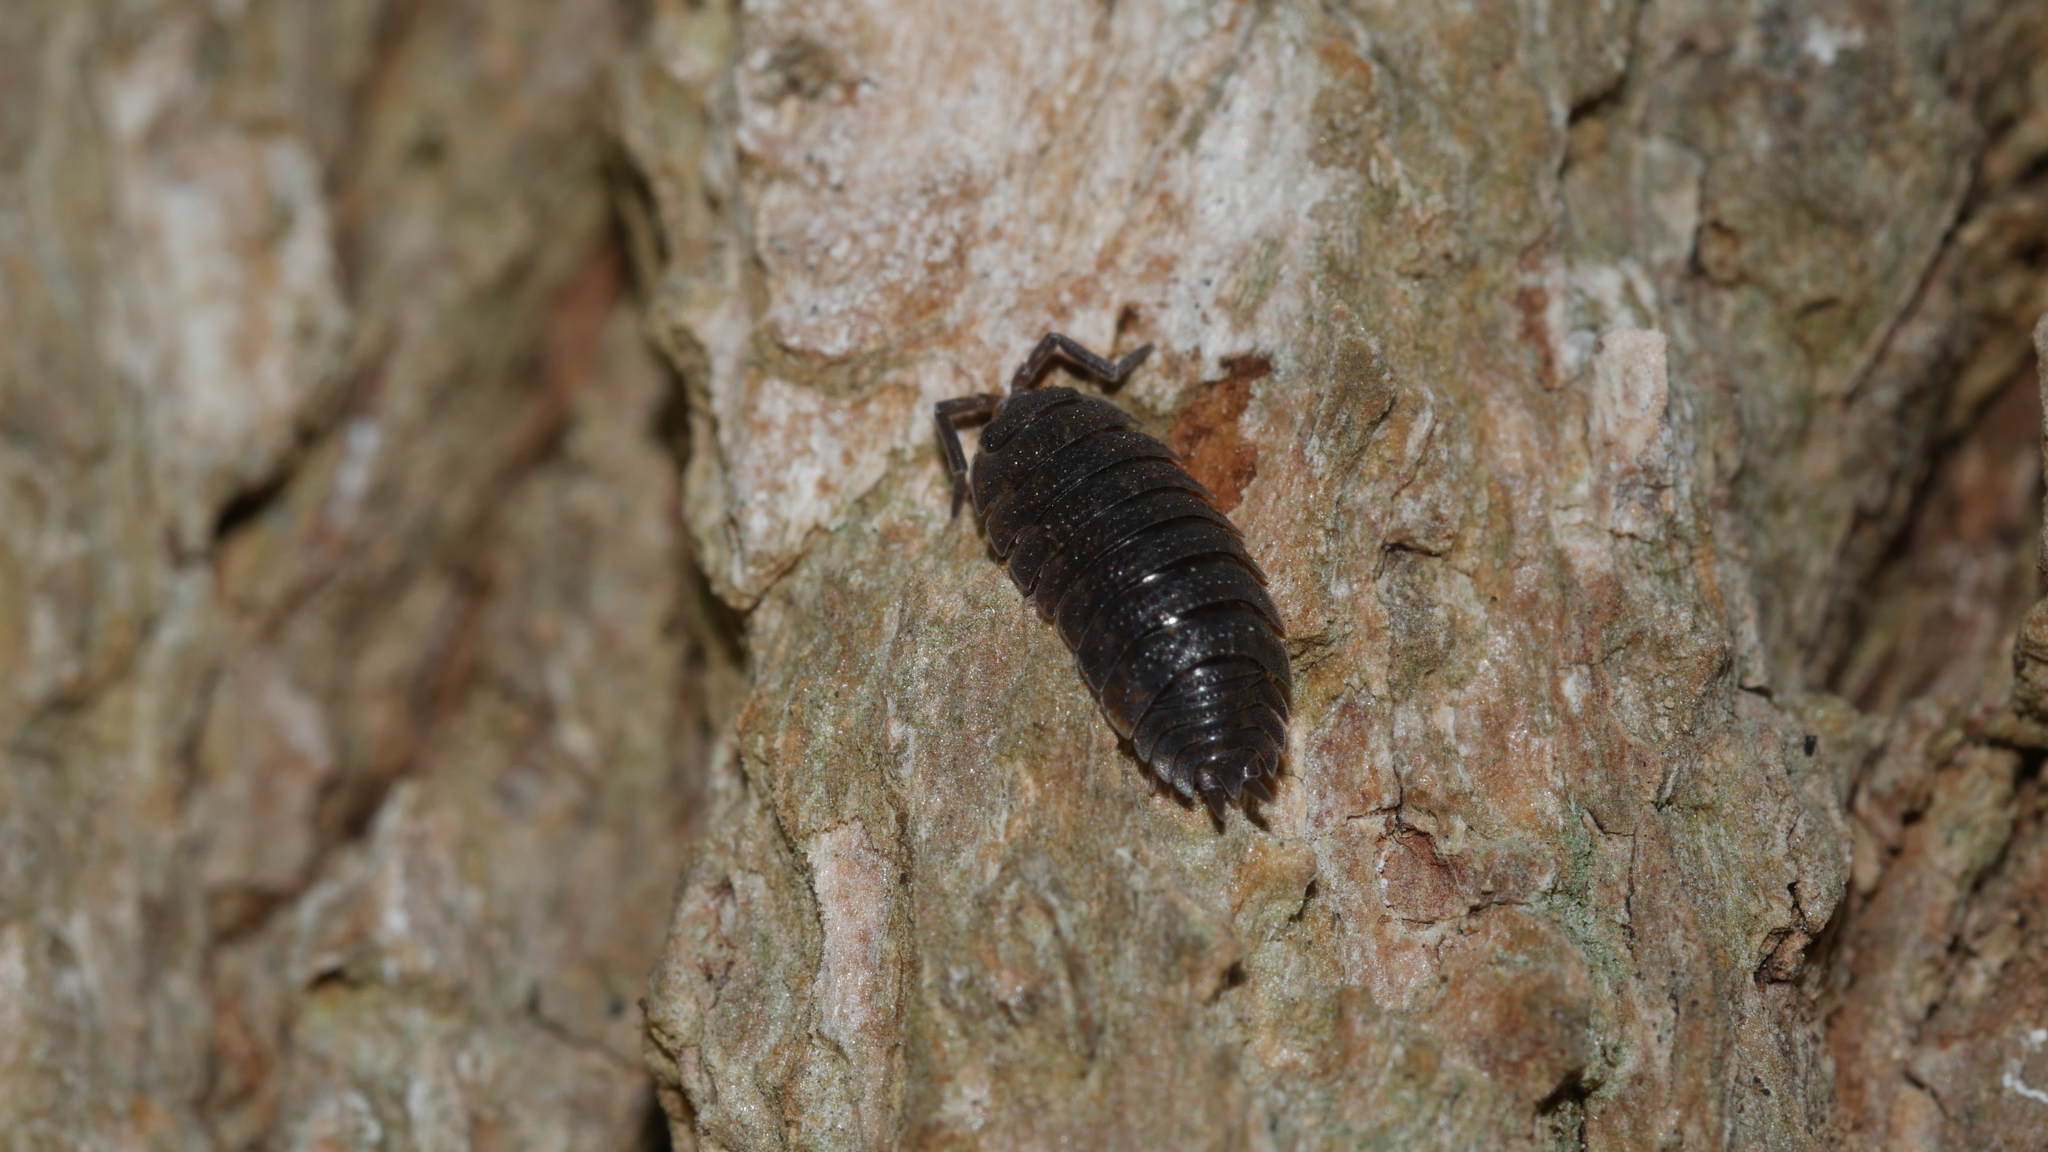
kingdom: Animalia
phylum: Arthropoda
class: Malacostraca
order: Isopoda
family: Porcellionidae
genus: Porcellio
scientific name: Porcellio scaber
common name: Common rough woodlouse
